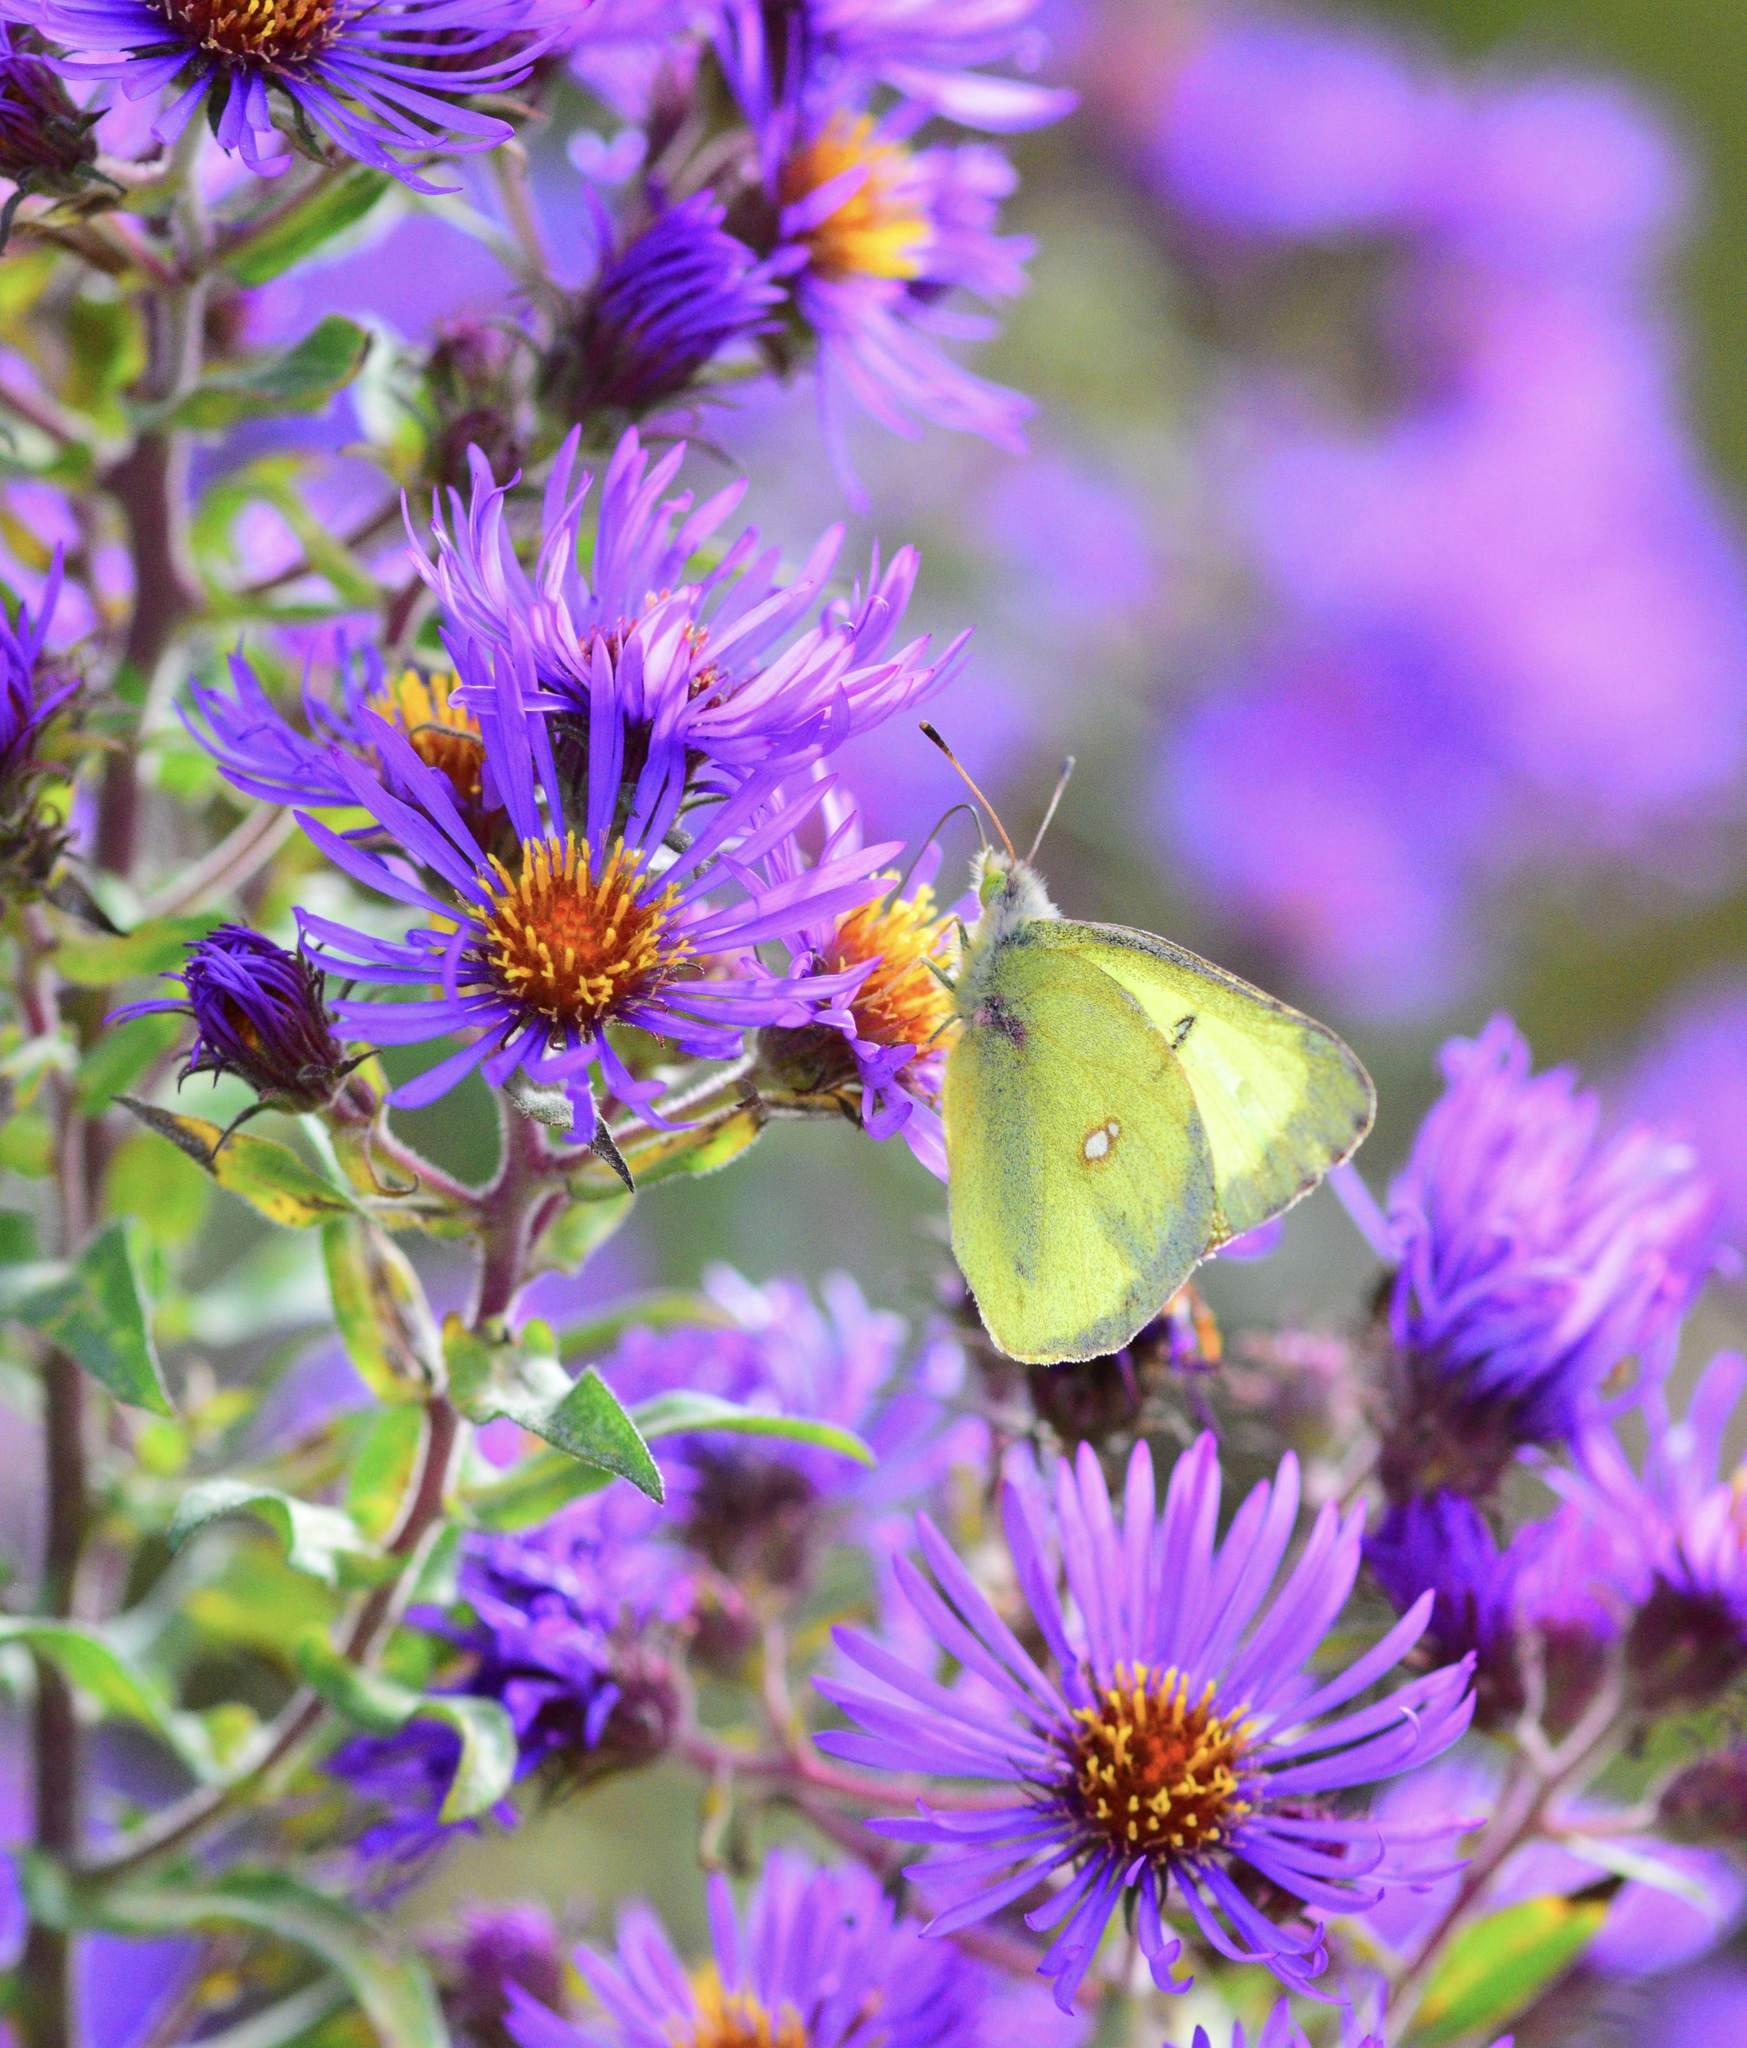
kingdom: Animalia
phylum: Arthropoda
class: Insecta
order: Lepidoptera
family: Pieridae
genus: Colias
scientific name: Colias philodice
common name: Clouded sulphur
